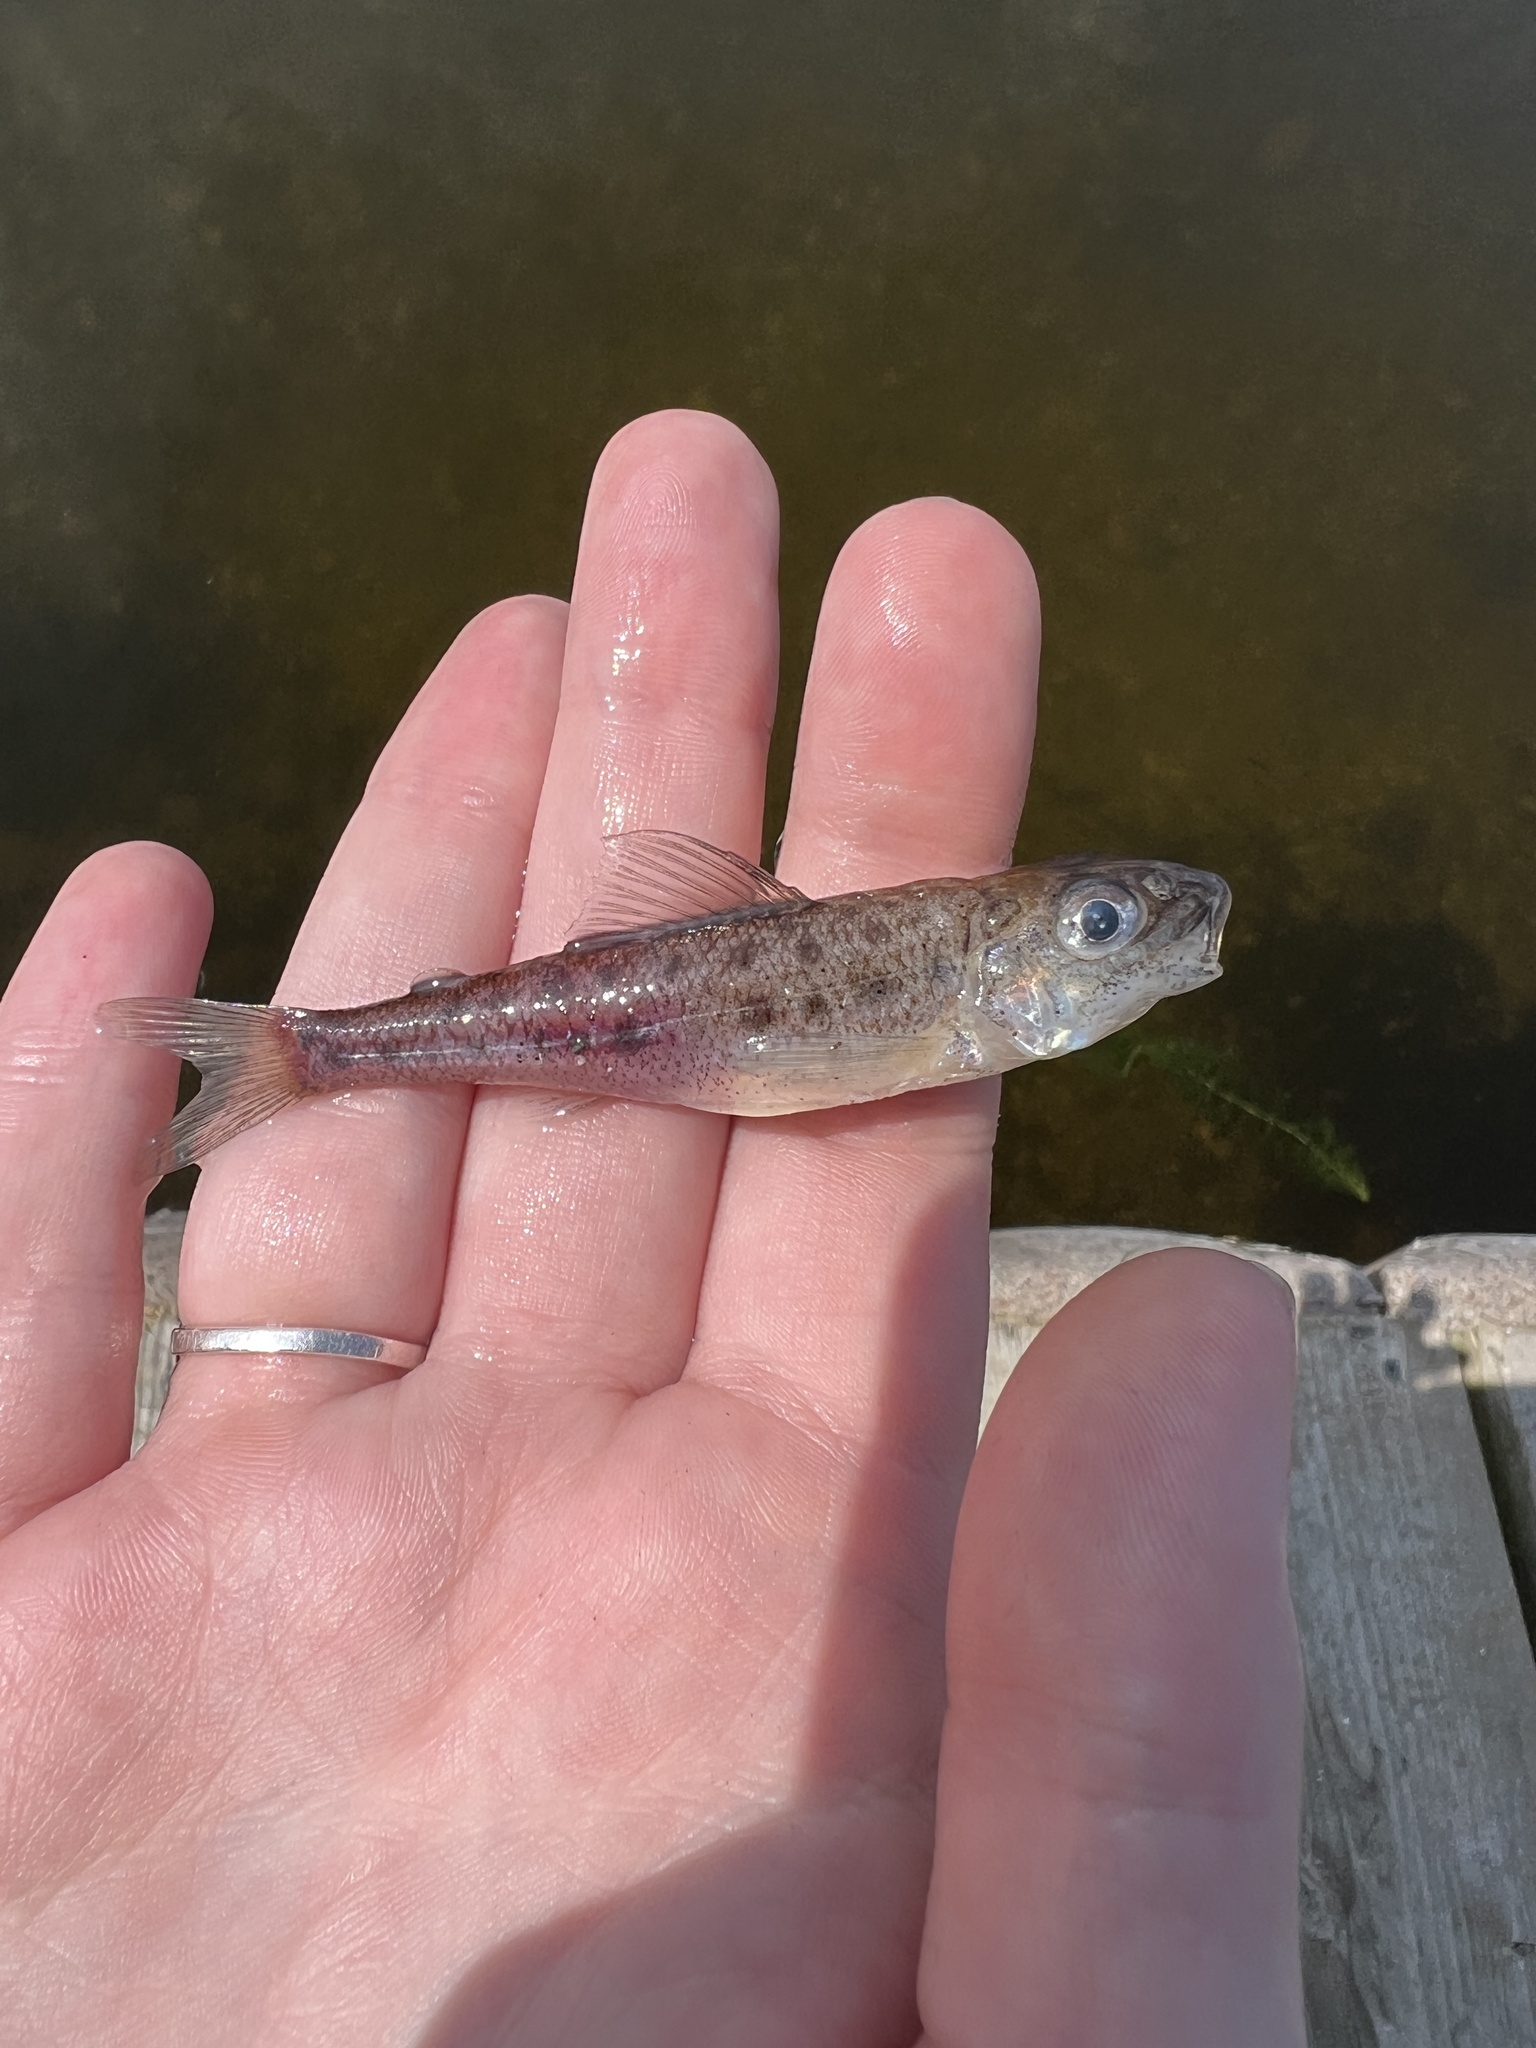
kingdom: Animalia
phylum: Chordata
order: Percopsiformes
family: Percopsidae
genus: Percopsis
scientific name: Percopsis omiscomaycus
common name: Trout-perch
